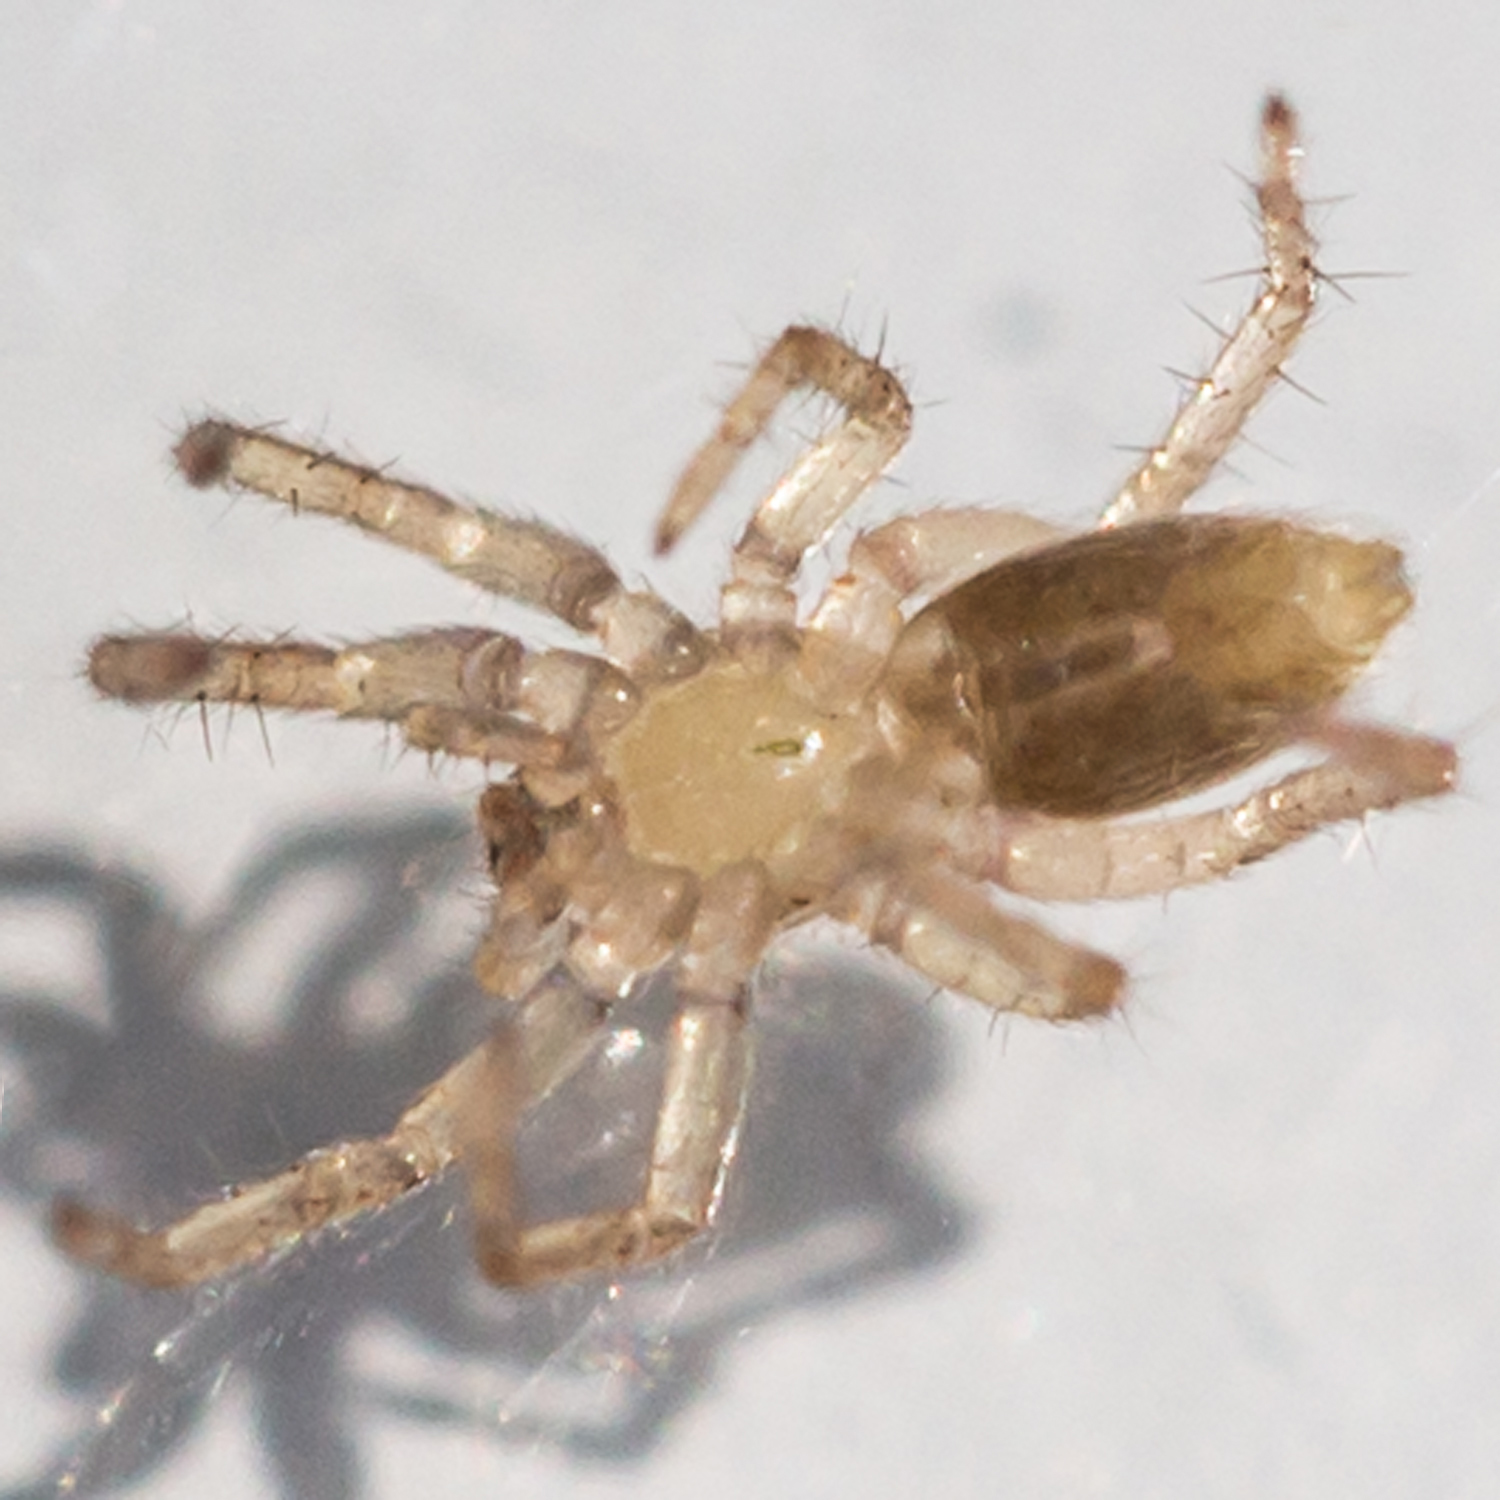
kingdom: Animalia
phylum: Arthropoda
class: Arachnida
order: Araneae
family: Anyphaenidae
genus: Arachosia
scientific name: Arachosia cubana
